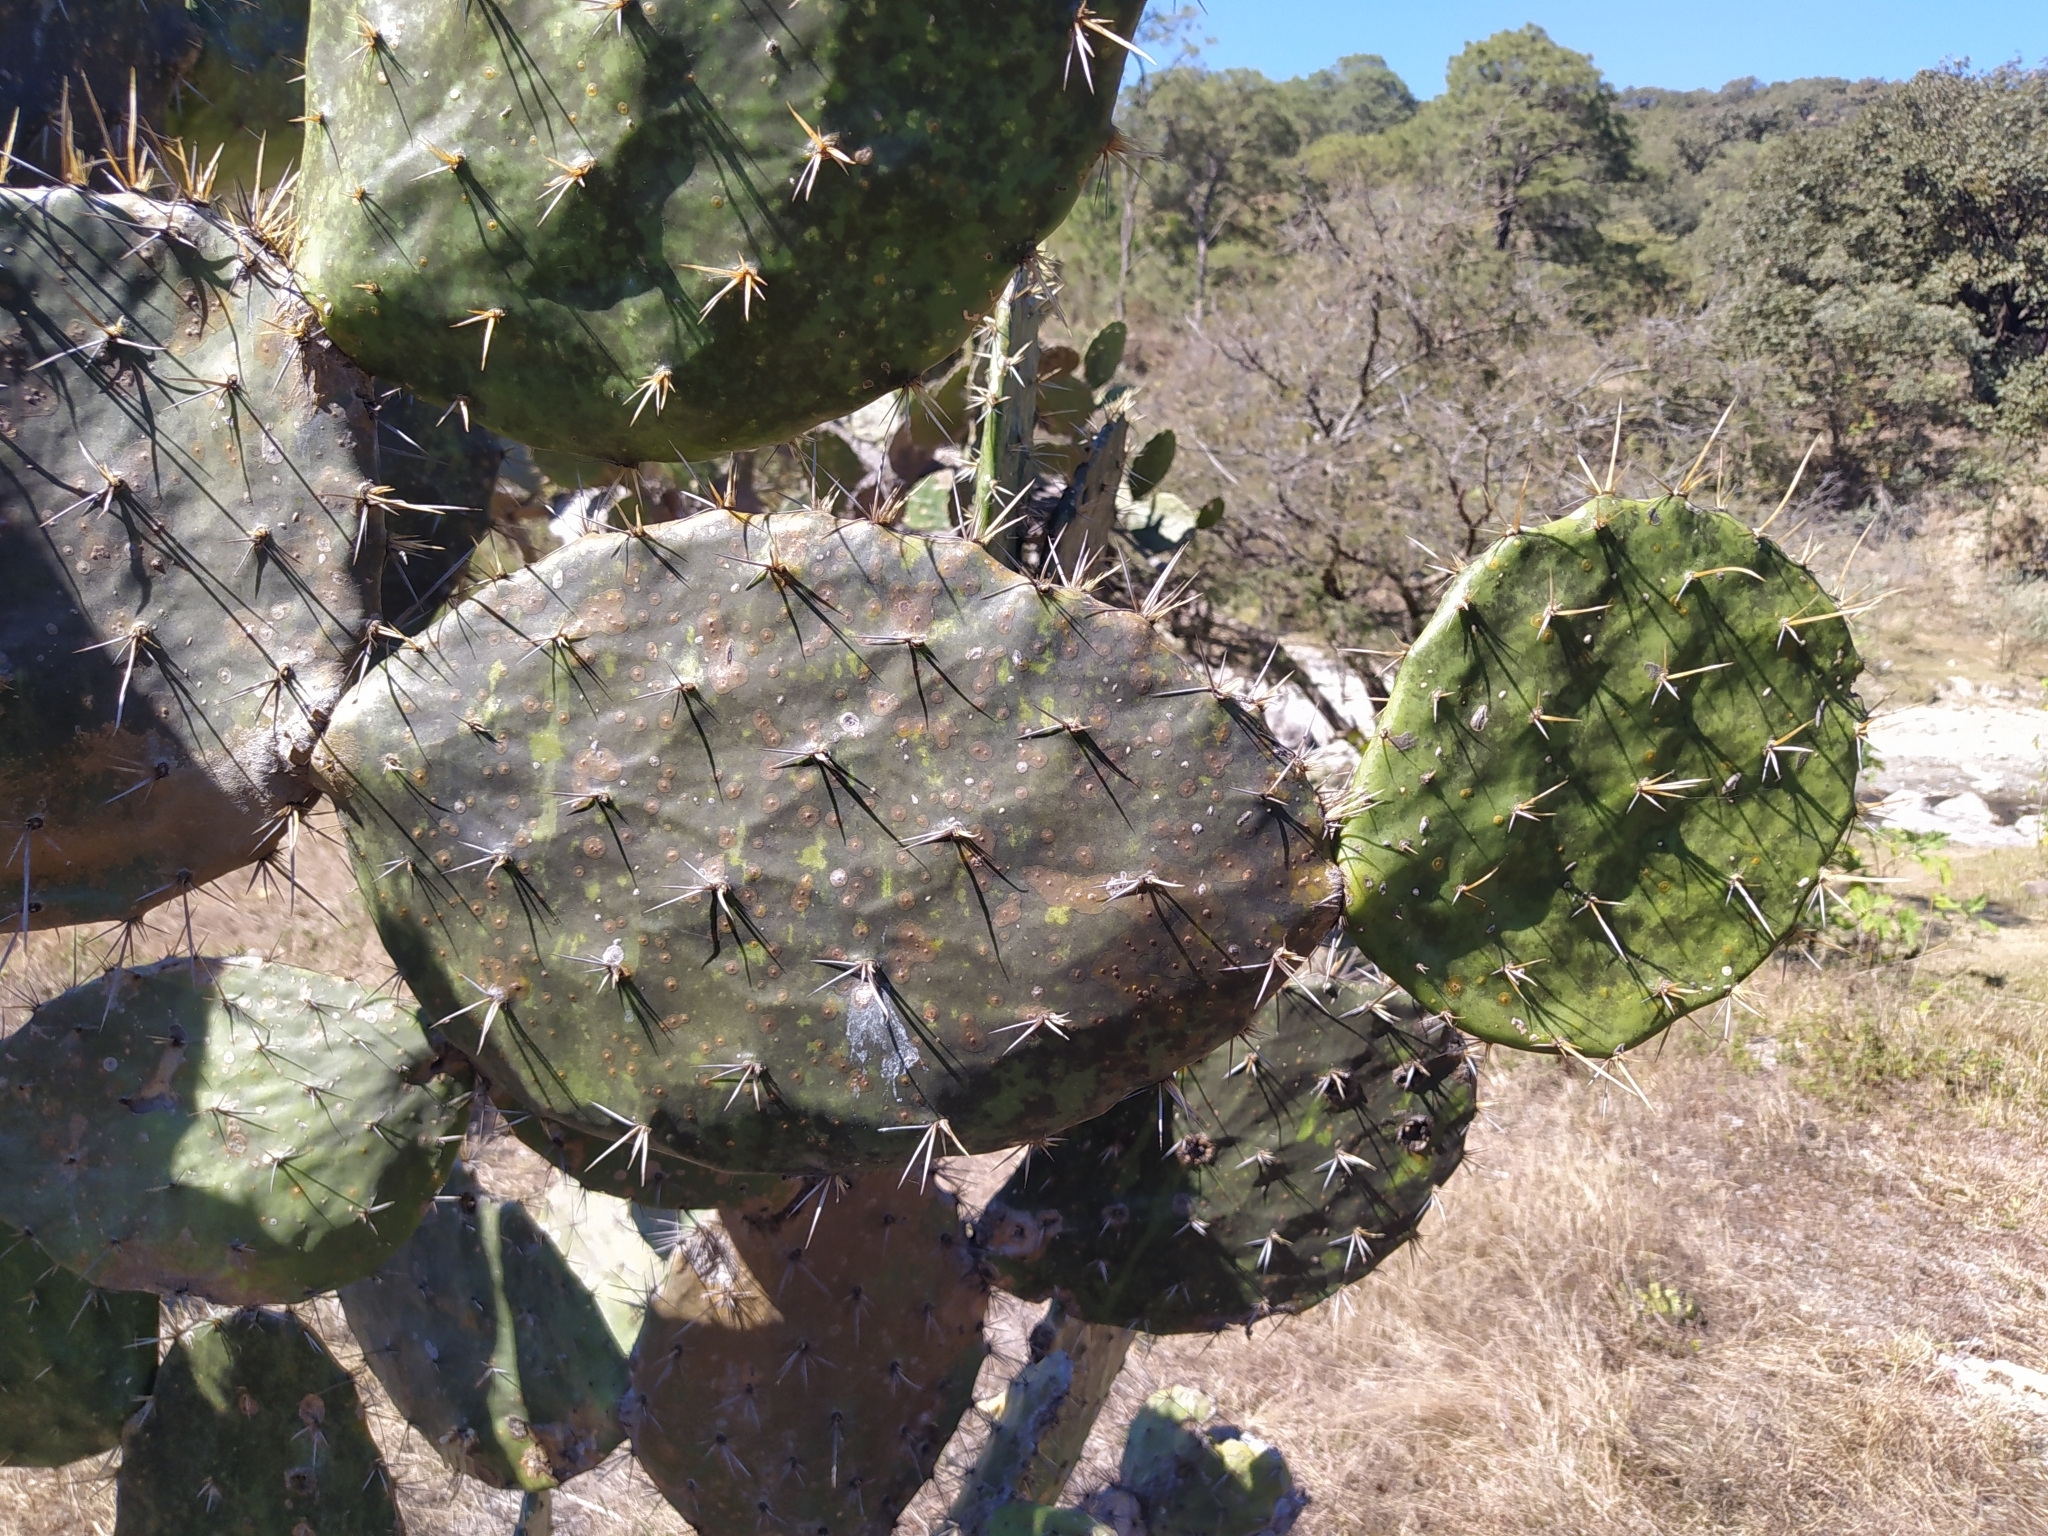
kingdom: Plantae
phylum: Tracheophyta
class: Magnoliopsida
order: Caryophyllales
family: Cactaceae
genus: Opuntia
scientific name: Opuntia fuliginosa
